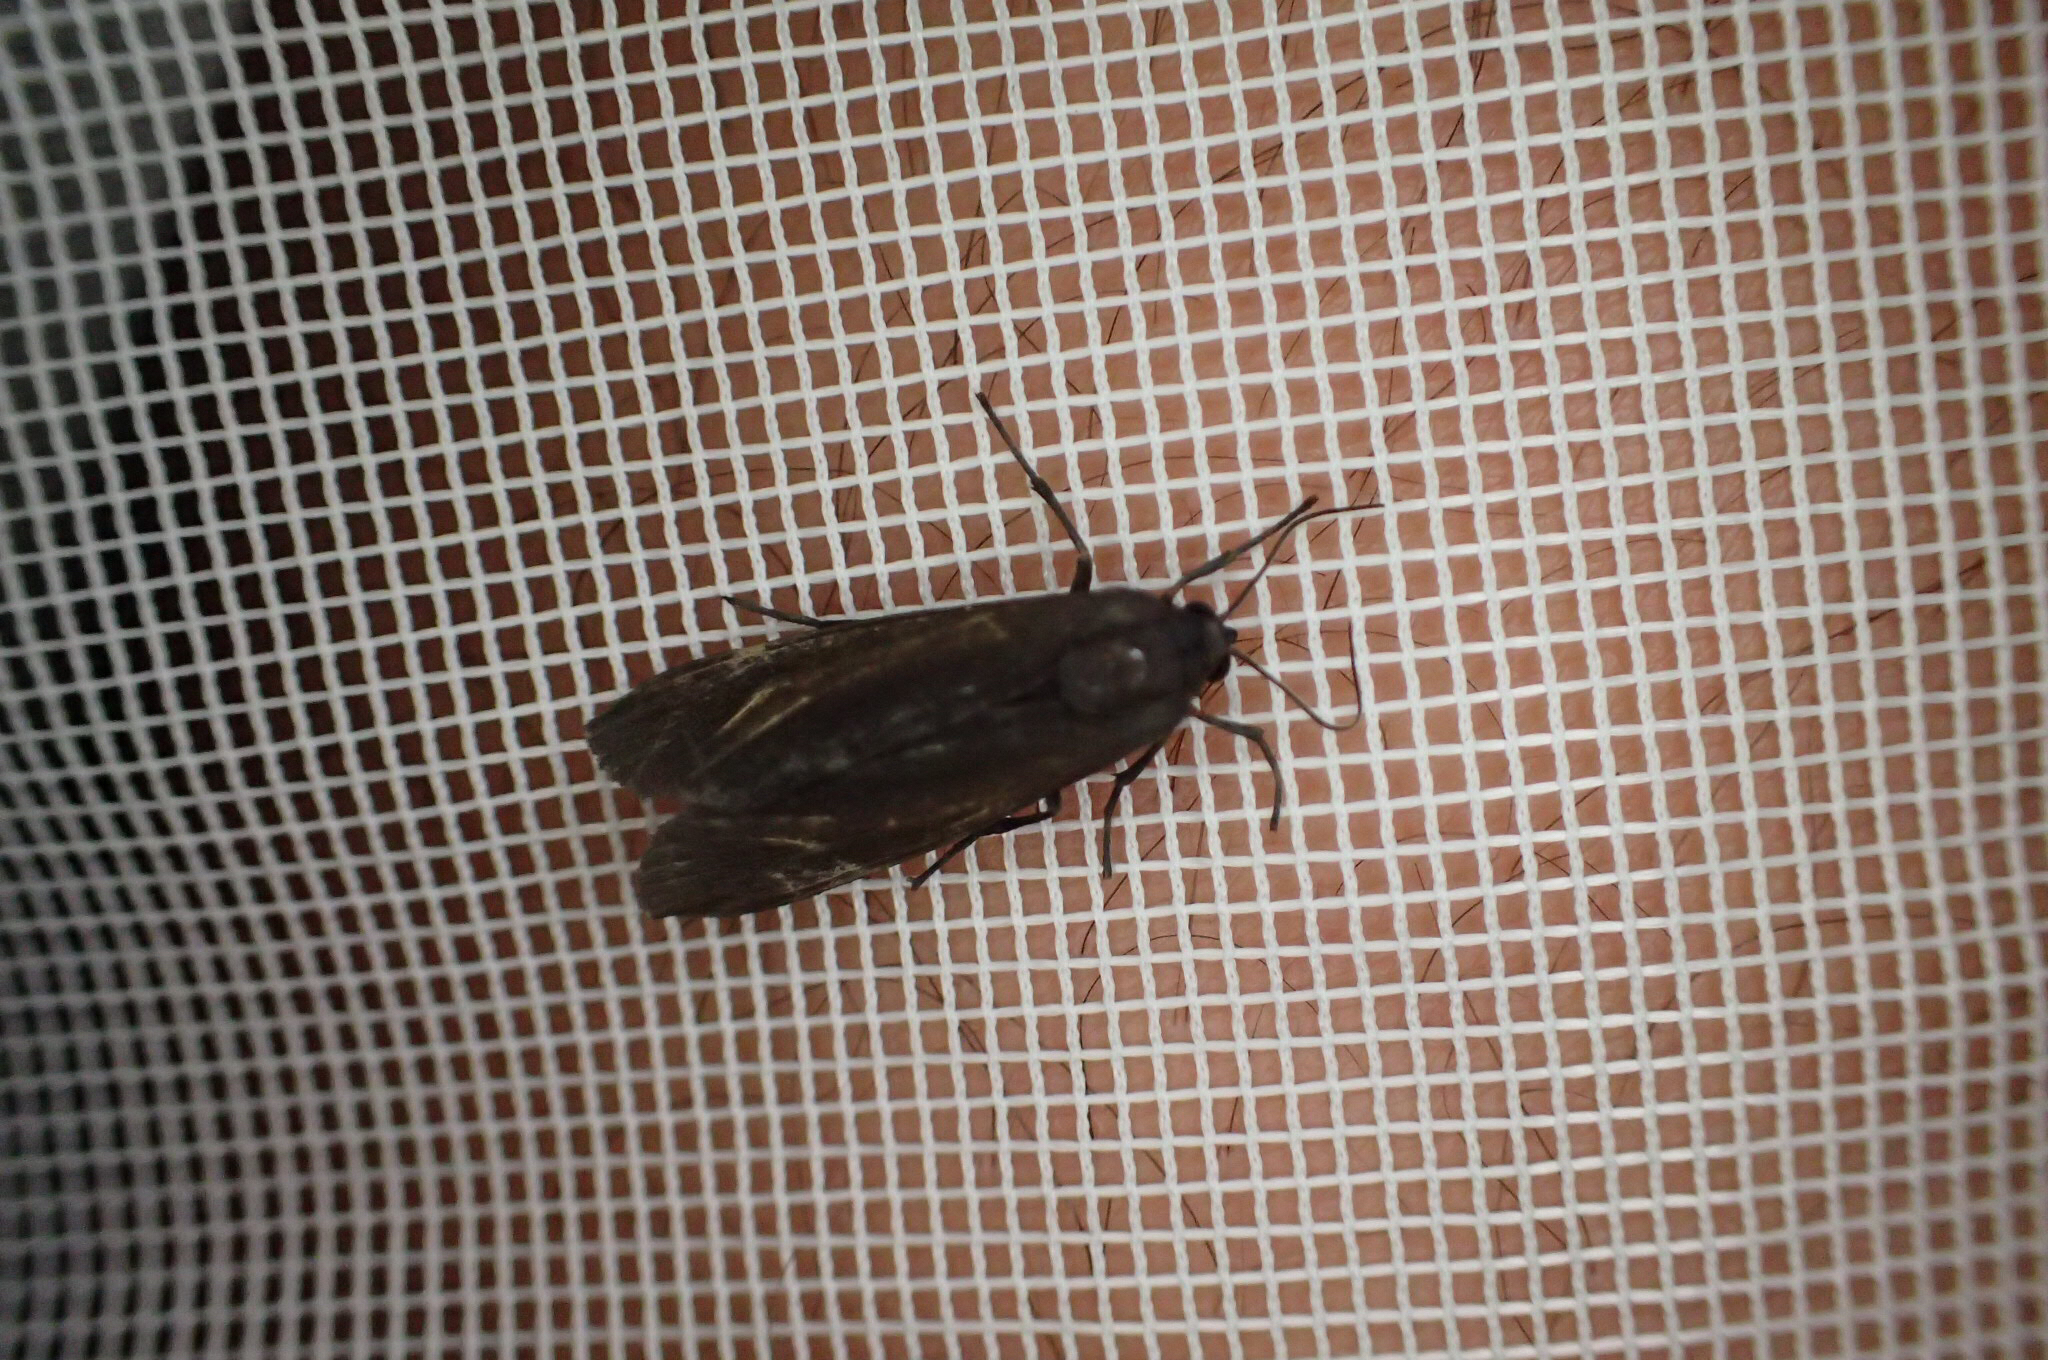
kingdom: Animalia
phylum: Arthropoda
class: Insecta
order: Lepidoptera
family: Erebidae
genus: Virbia
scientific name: Virbia medarda
